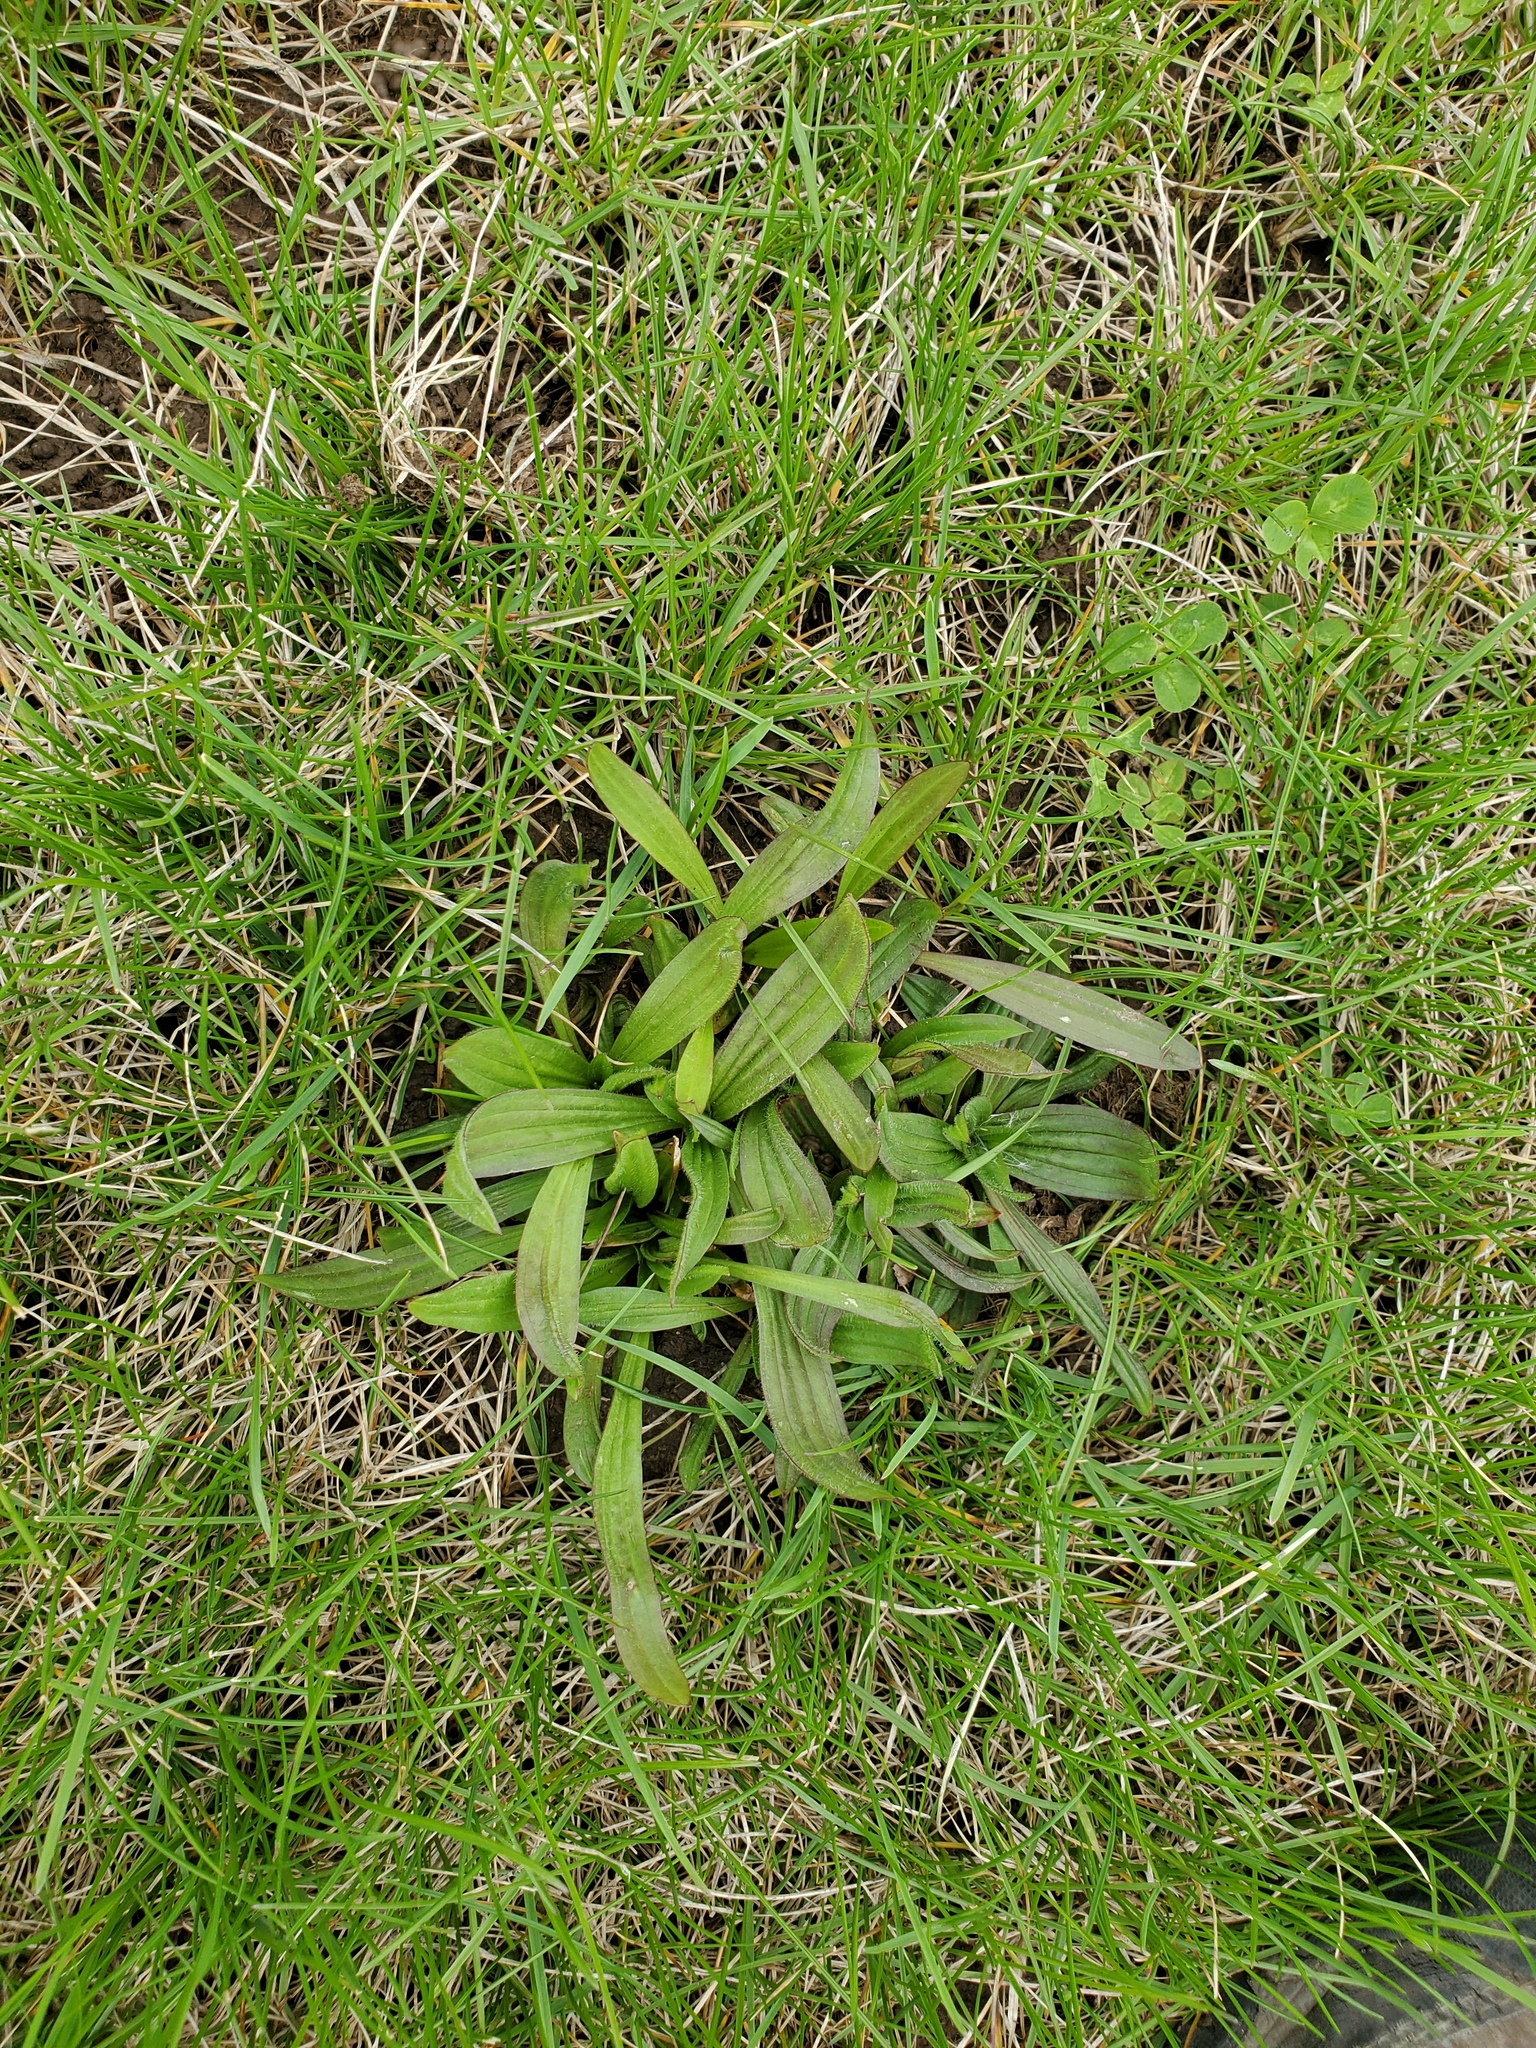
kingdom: Plantae
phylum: Tracheophyta
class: Magnoliopsida
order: Lamiales
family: Plantaginaceae
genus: Plantago
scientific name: Plantago lanceolata
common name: Ribwort plantain
